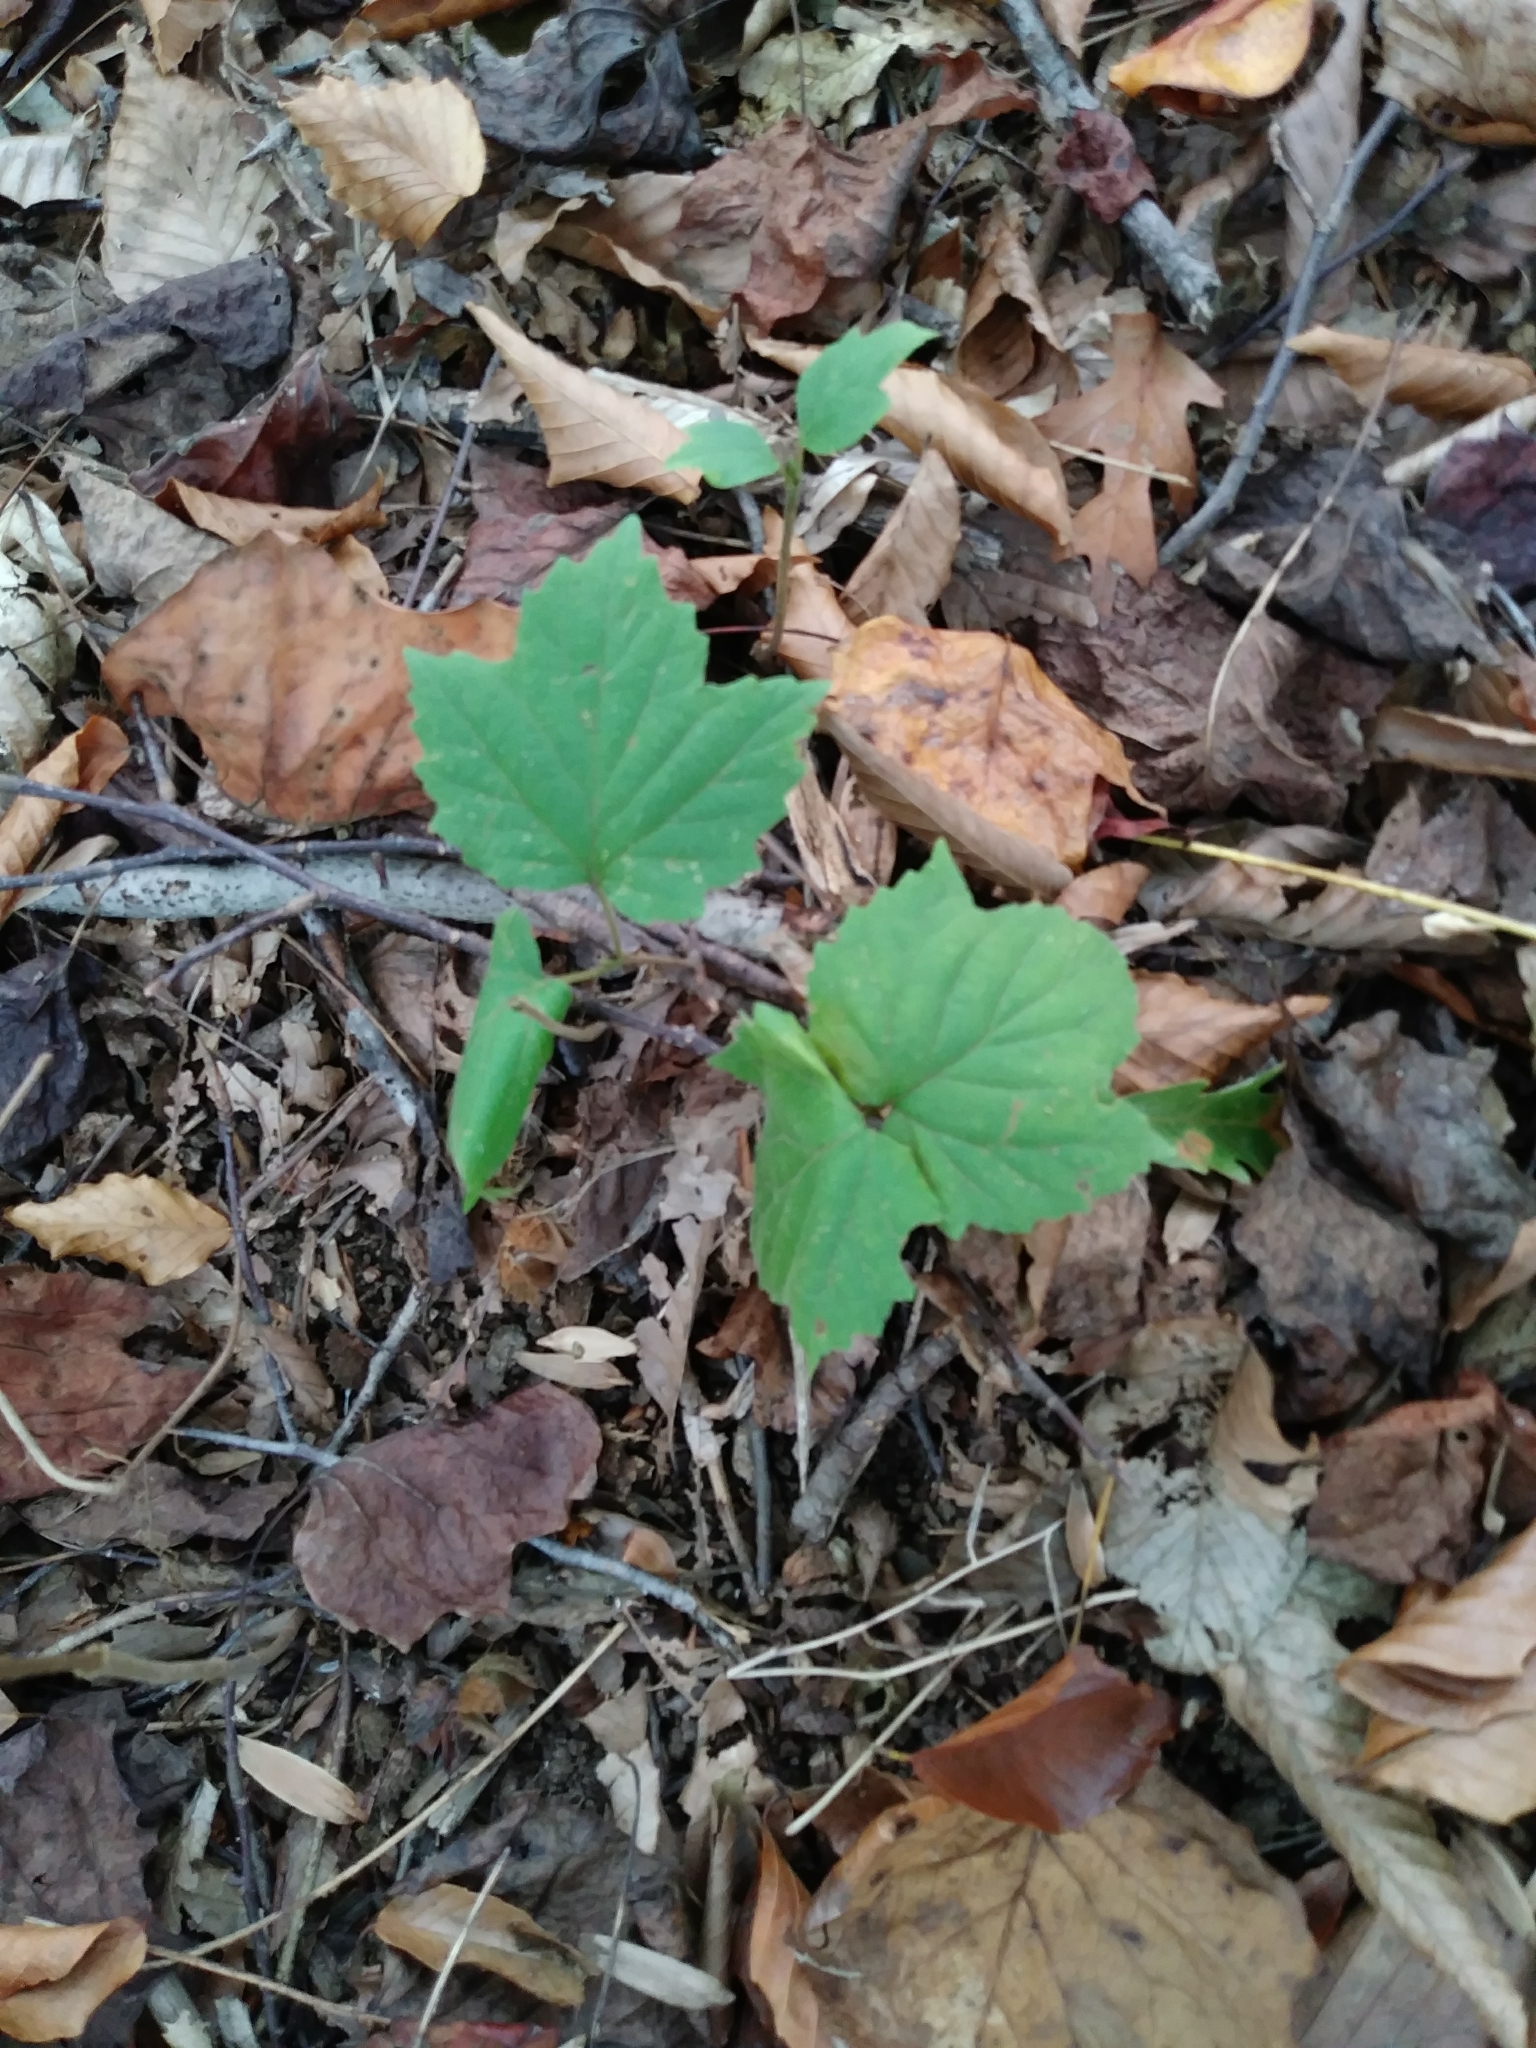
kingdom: Plantae
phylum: Tracheophyta
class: Magnoliopsida
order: Dipsacales
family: Viburnaceae
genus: Viburnum
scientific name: Viburnum acerifolium
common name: Dockmackie
